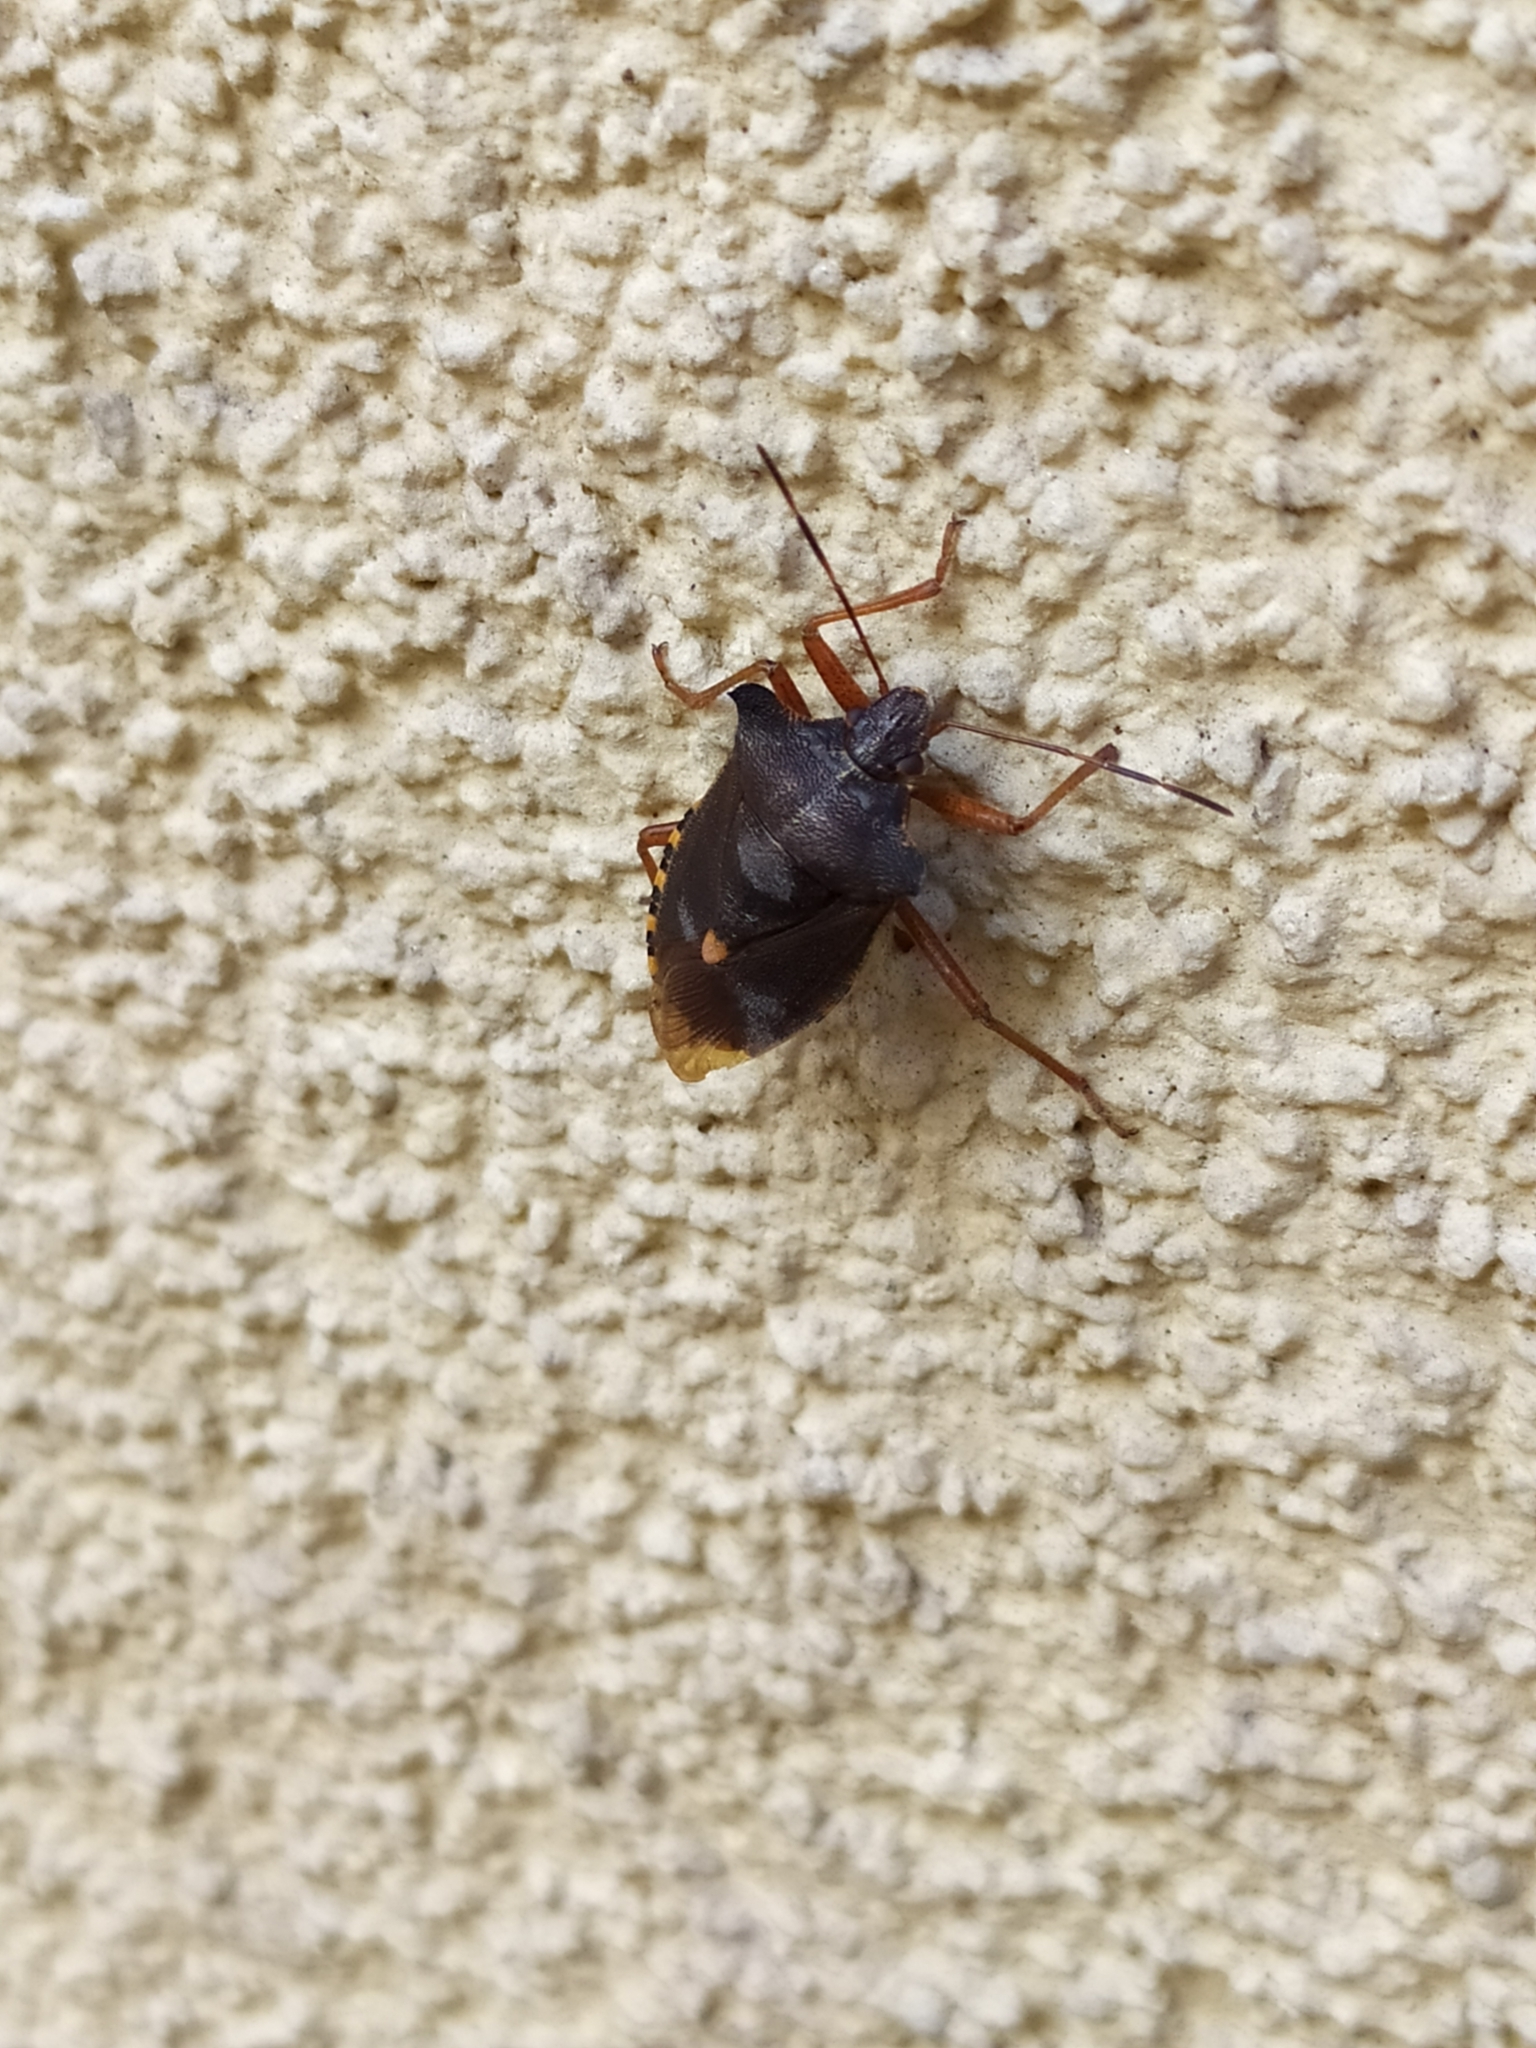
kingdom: Animalia
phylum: Arthropoda
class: Insecta
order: Hemiptera
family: Pentatomidae
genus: Pentatoma
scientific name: Pentatoma rufipes
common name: Forest bug
